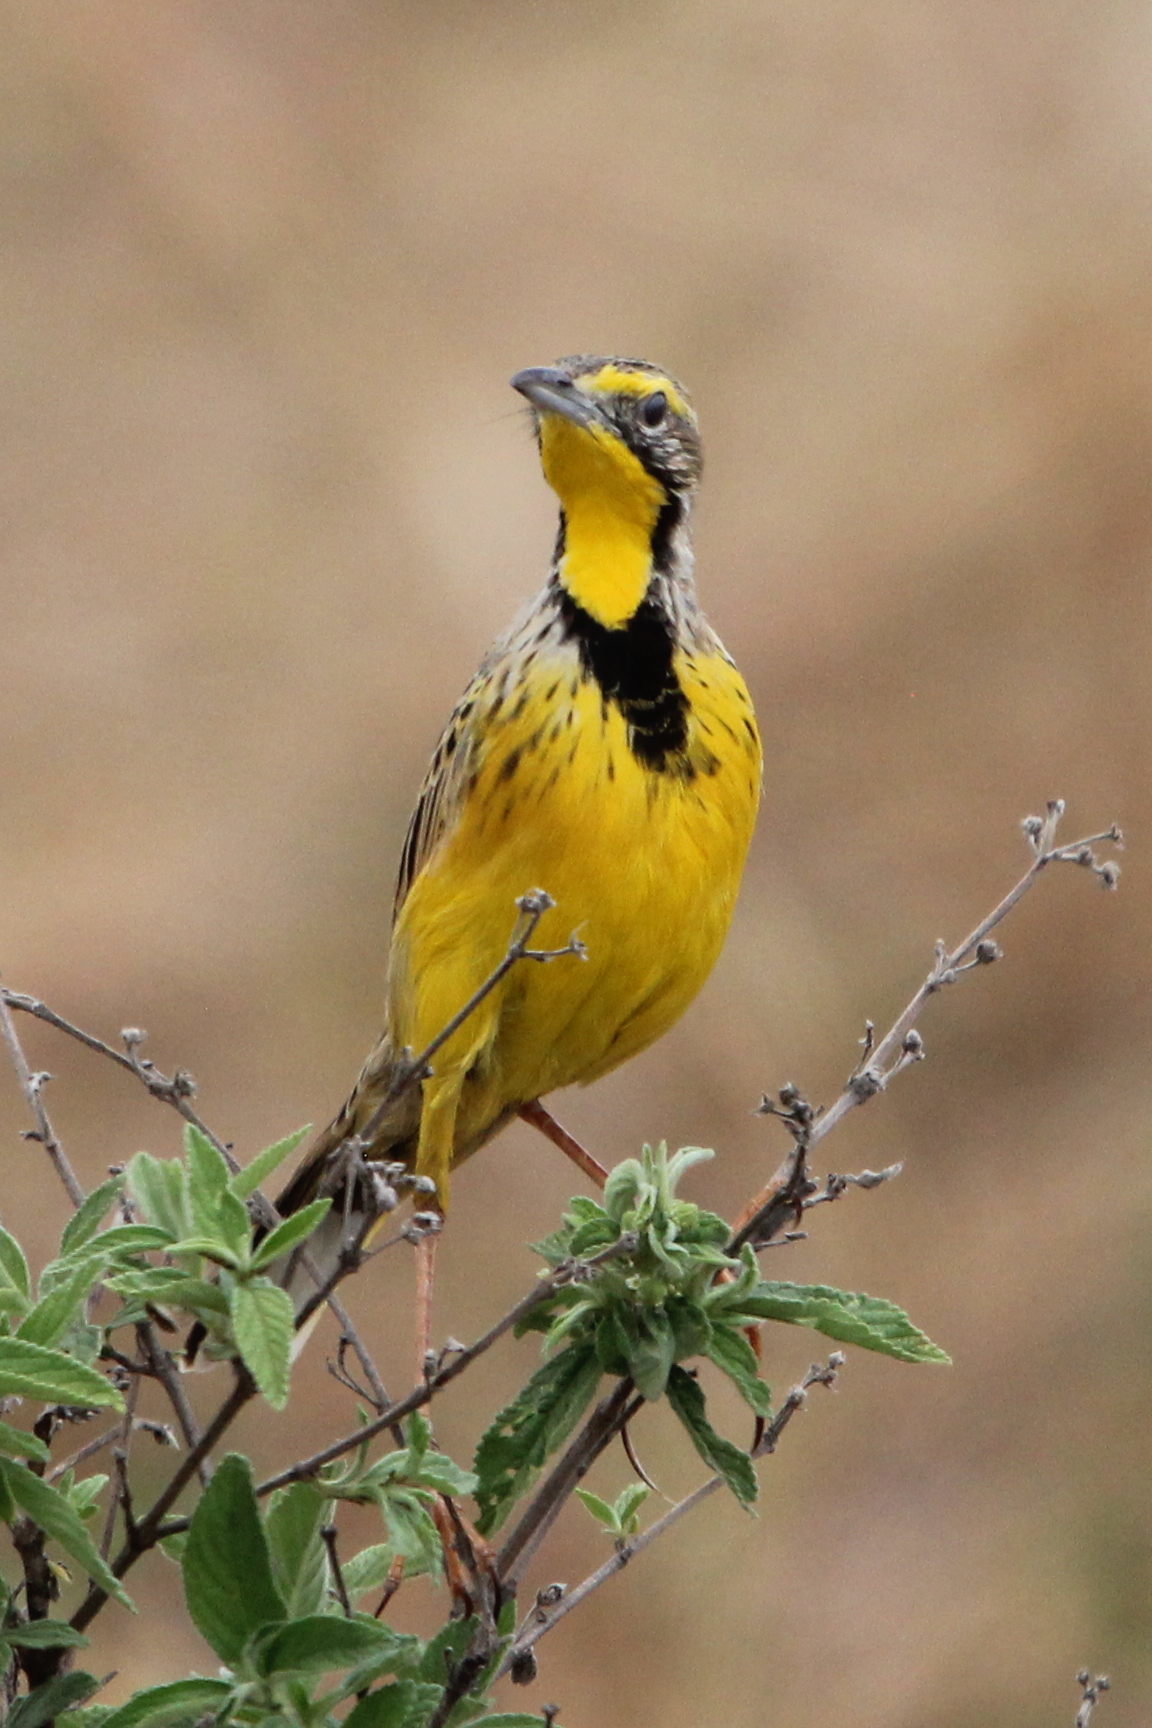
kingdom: Animalia
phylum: Chordata
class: Aves
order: Passeriformes
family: Motacillidae
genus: Macronyx
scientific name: Macronyx croceus
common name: Yellow-throated longclaw
